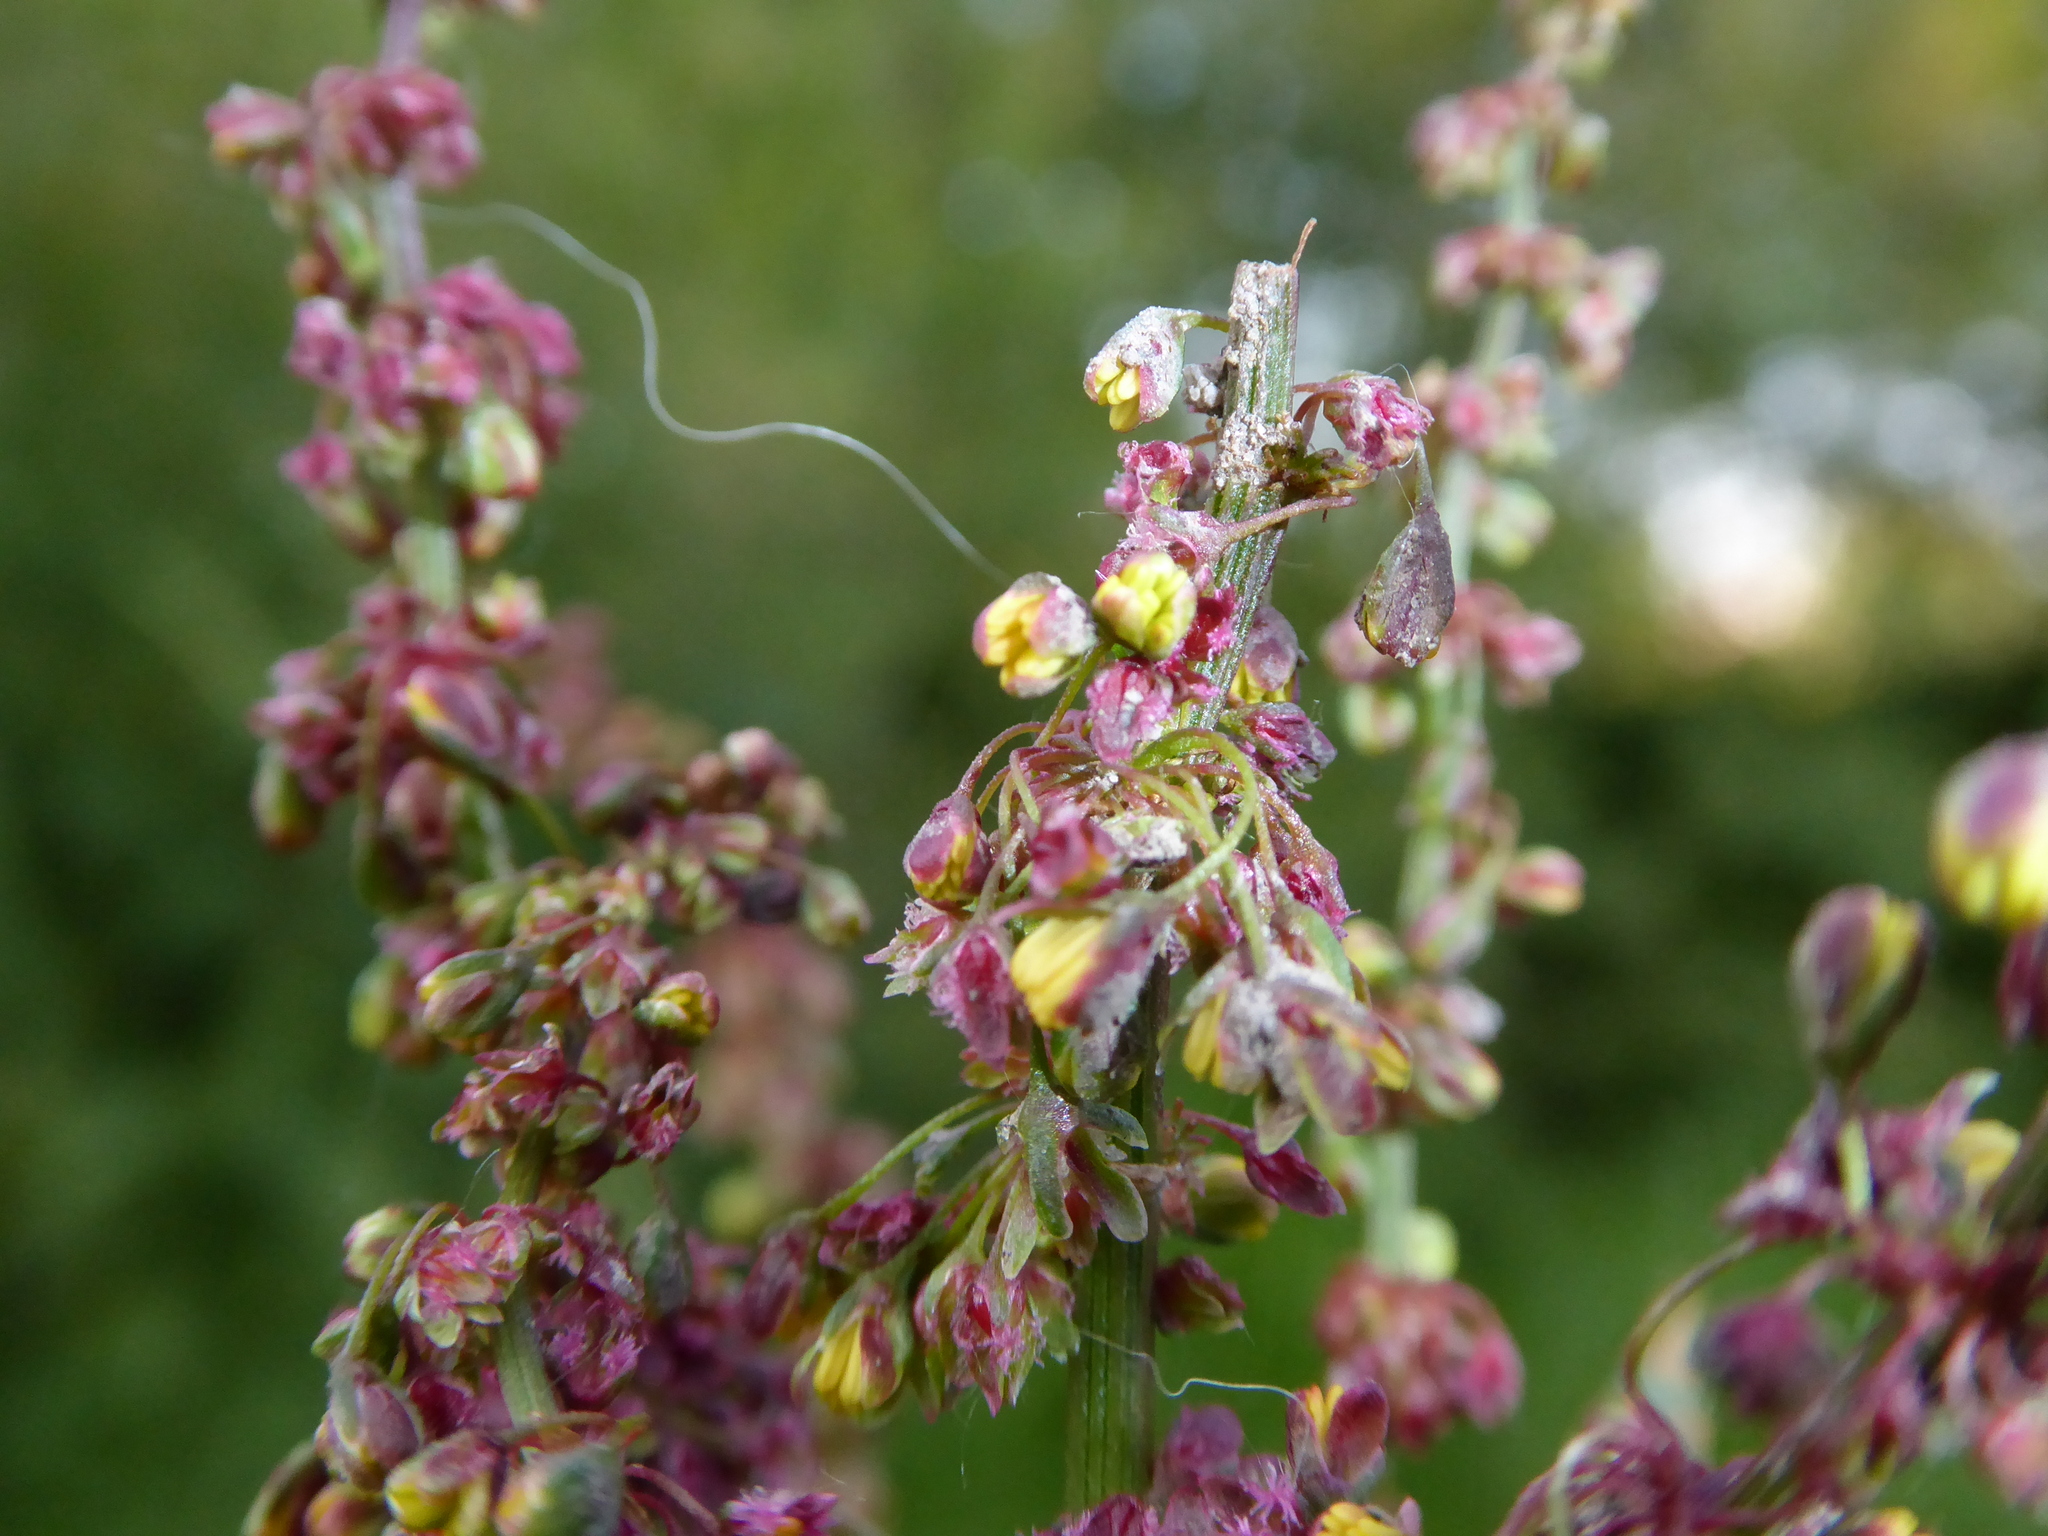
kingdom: Plantae
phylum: Tracheophyta
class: Magnoliopsida
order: Caryophyllales
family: Polygonaceae
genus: Rumex
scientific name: Rumex obtusifolius
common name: Bitter dock
